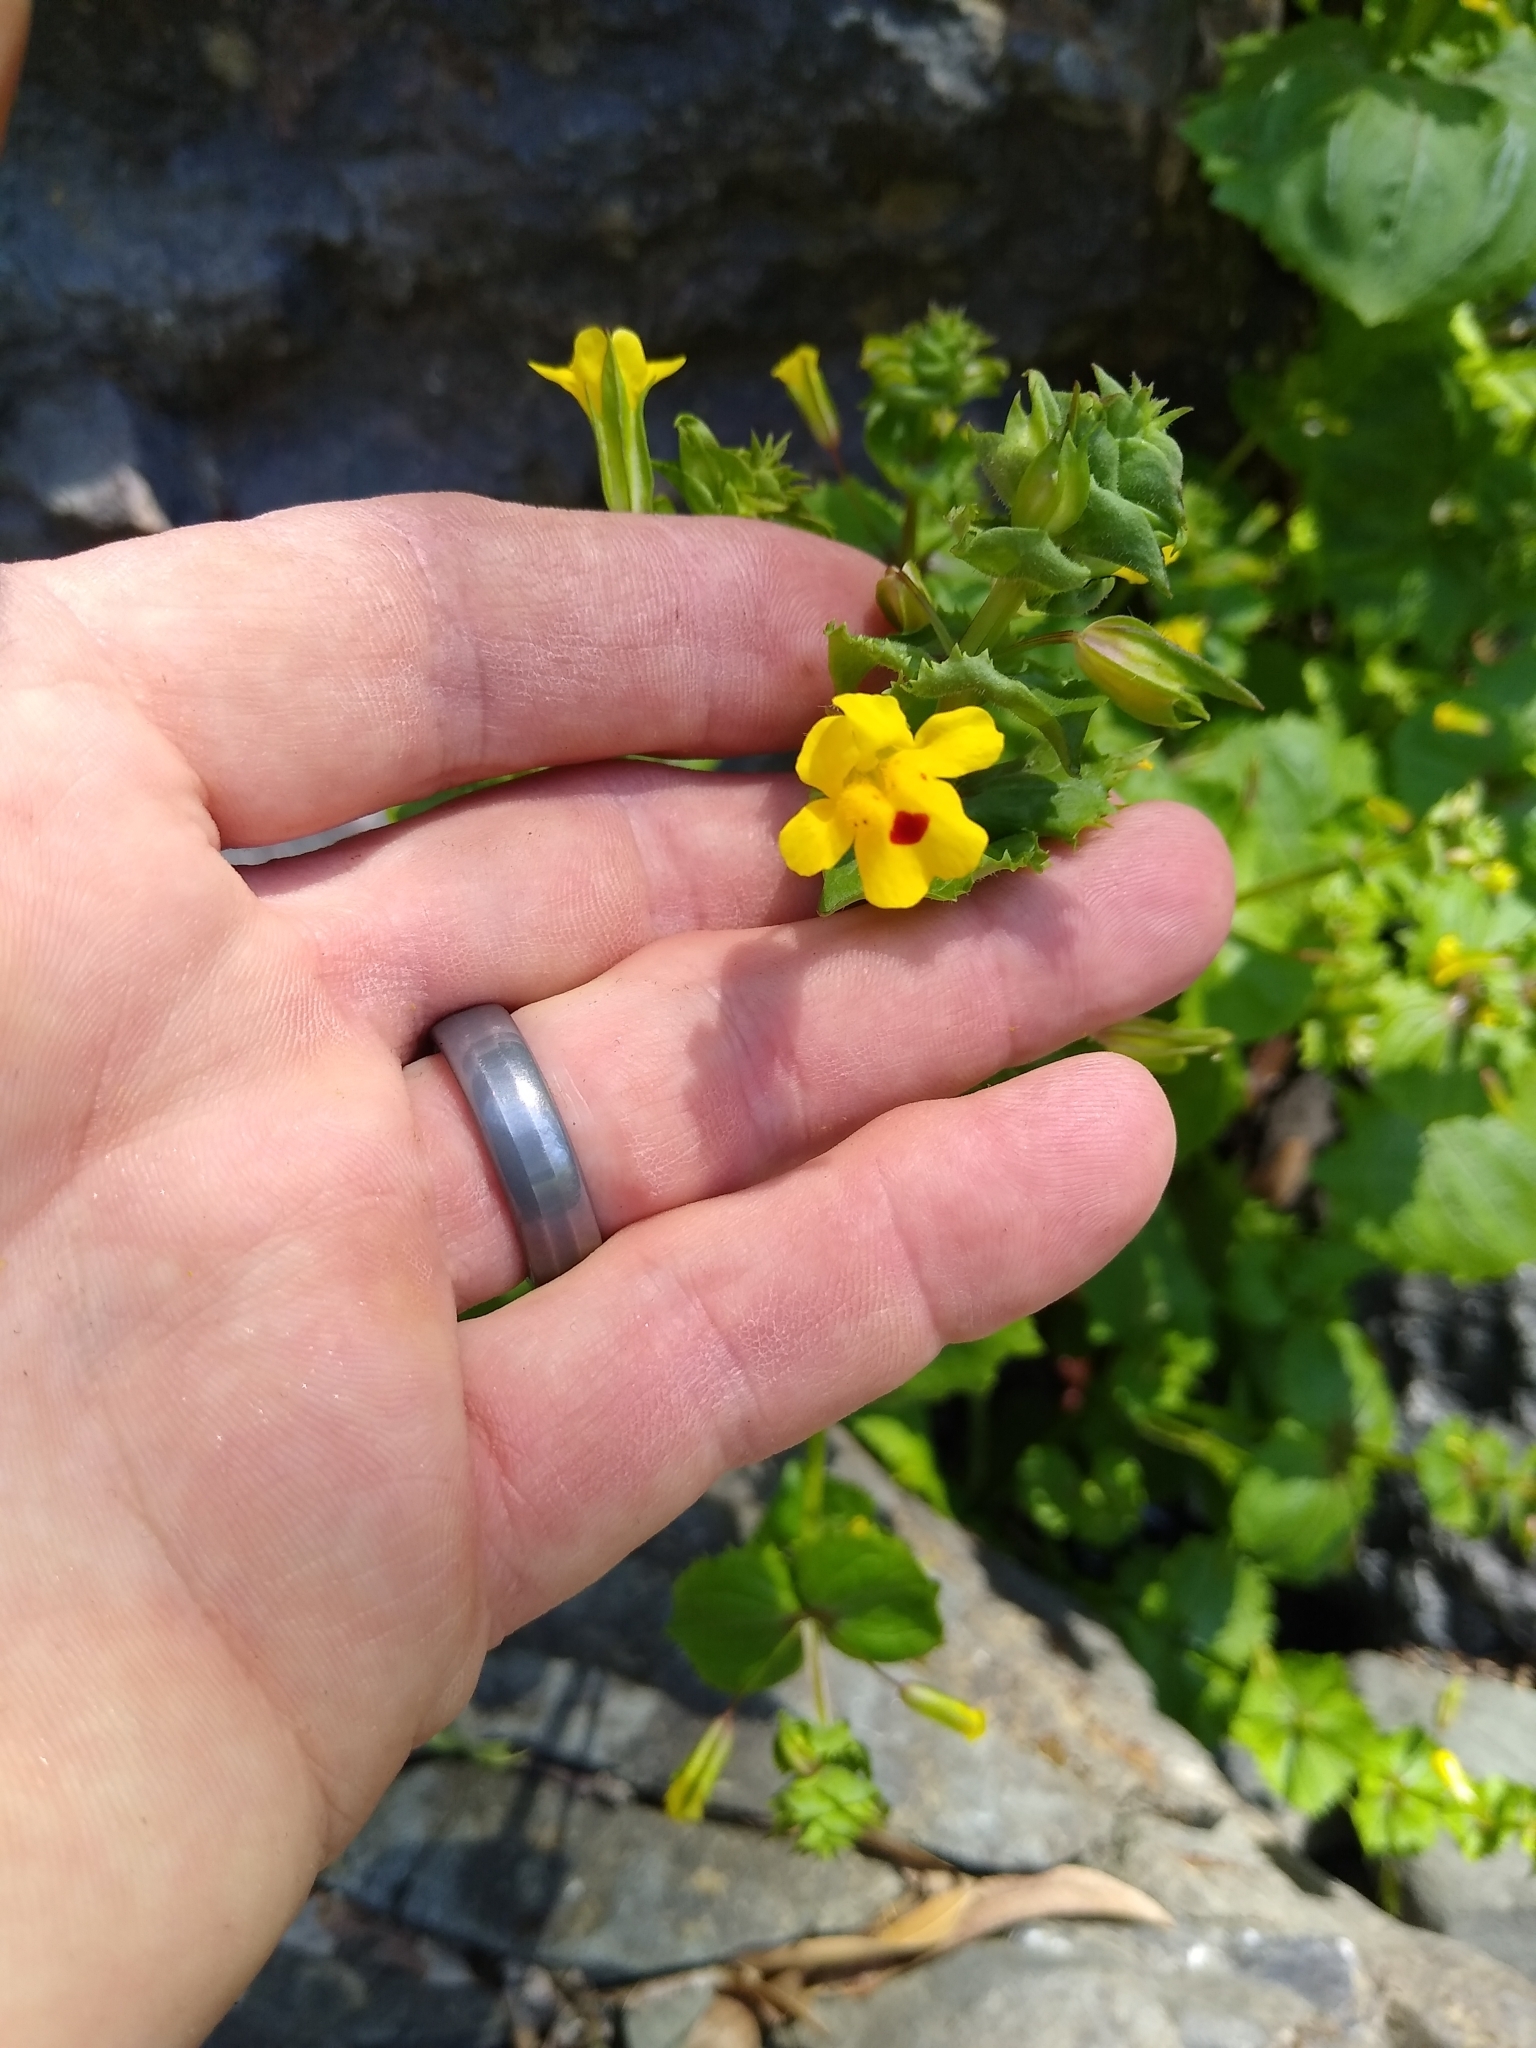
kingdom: Plantae
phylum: Tracheophyta
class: Magnoliopsida
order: Lamiales
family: Phrymaceae
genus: Erythranthe
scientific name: Erythranthe nasuta
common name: Sooke monkeyflower
